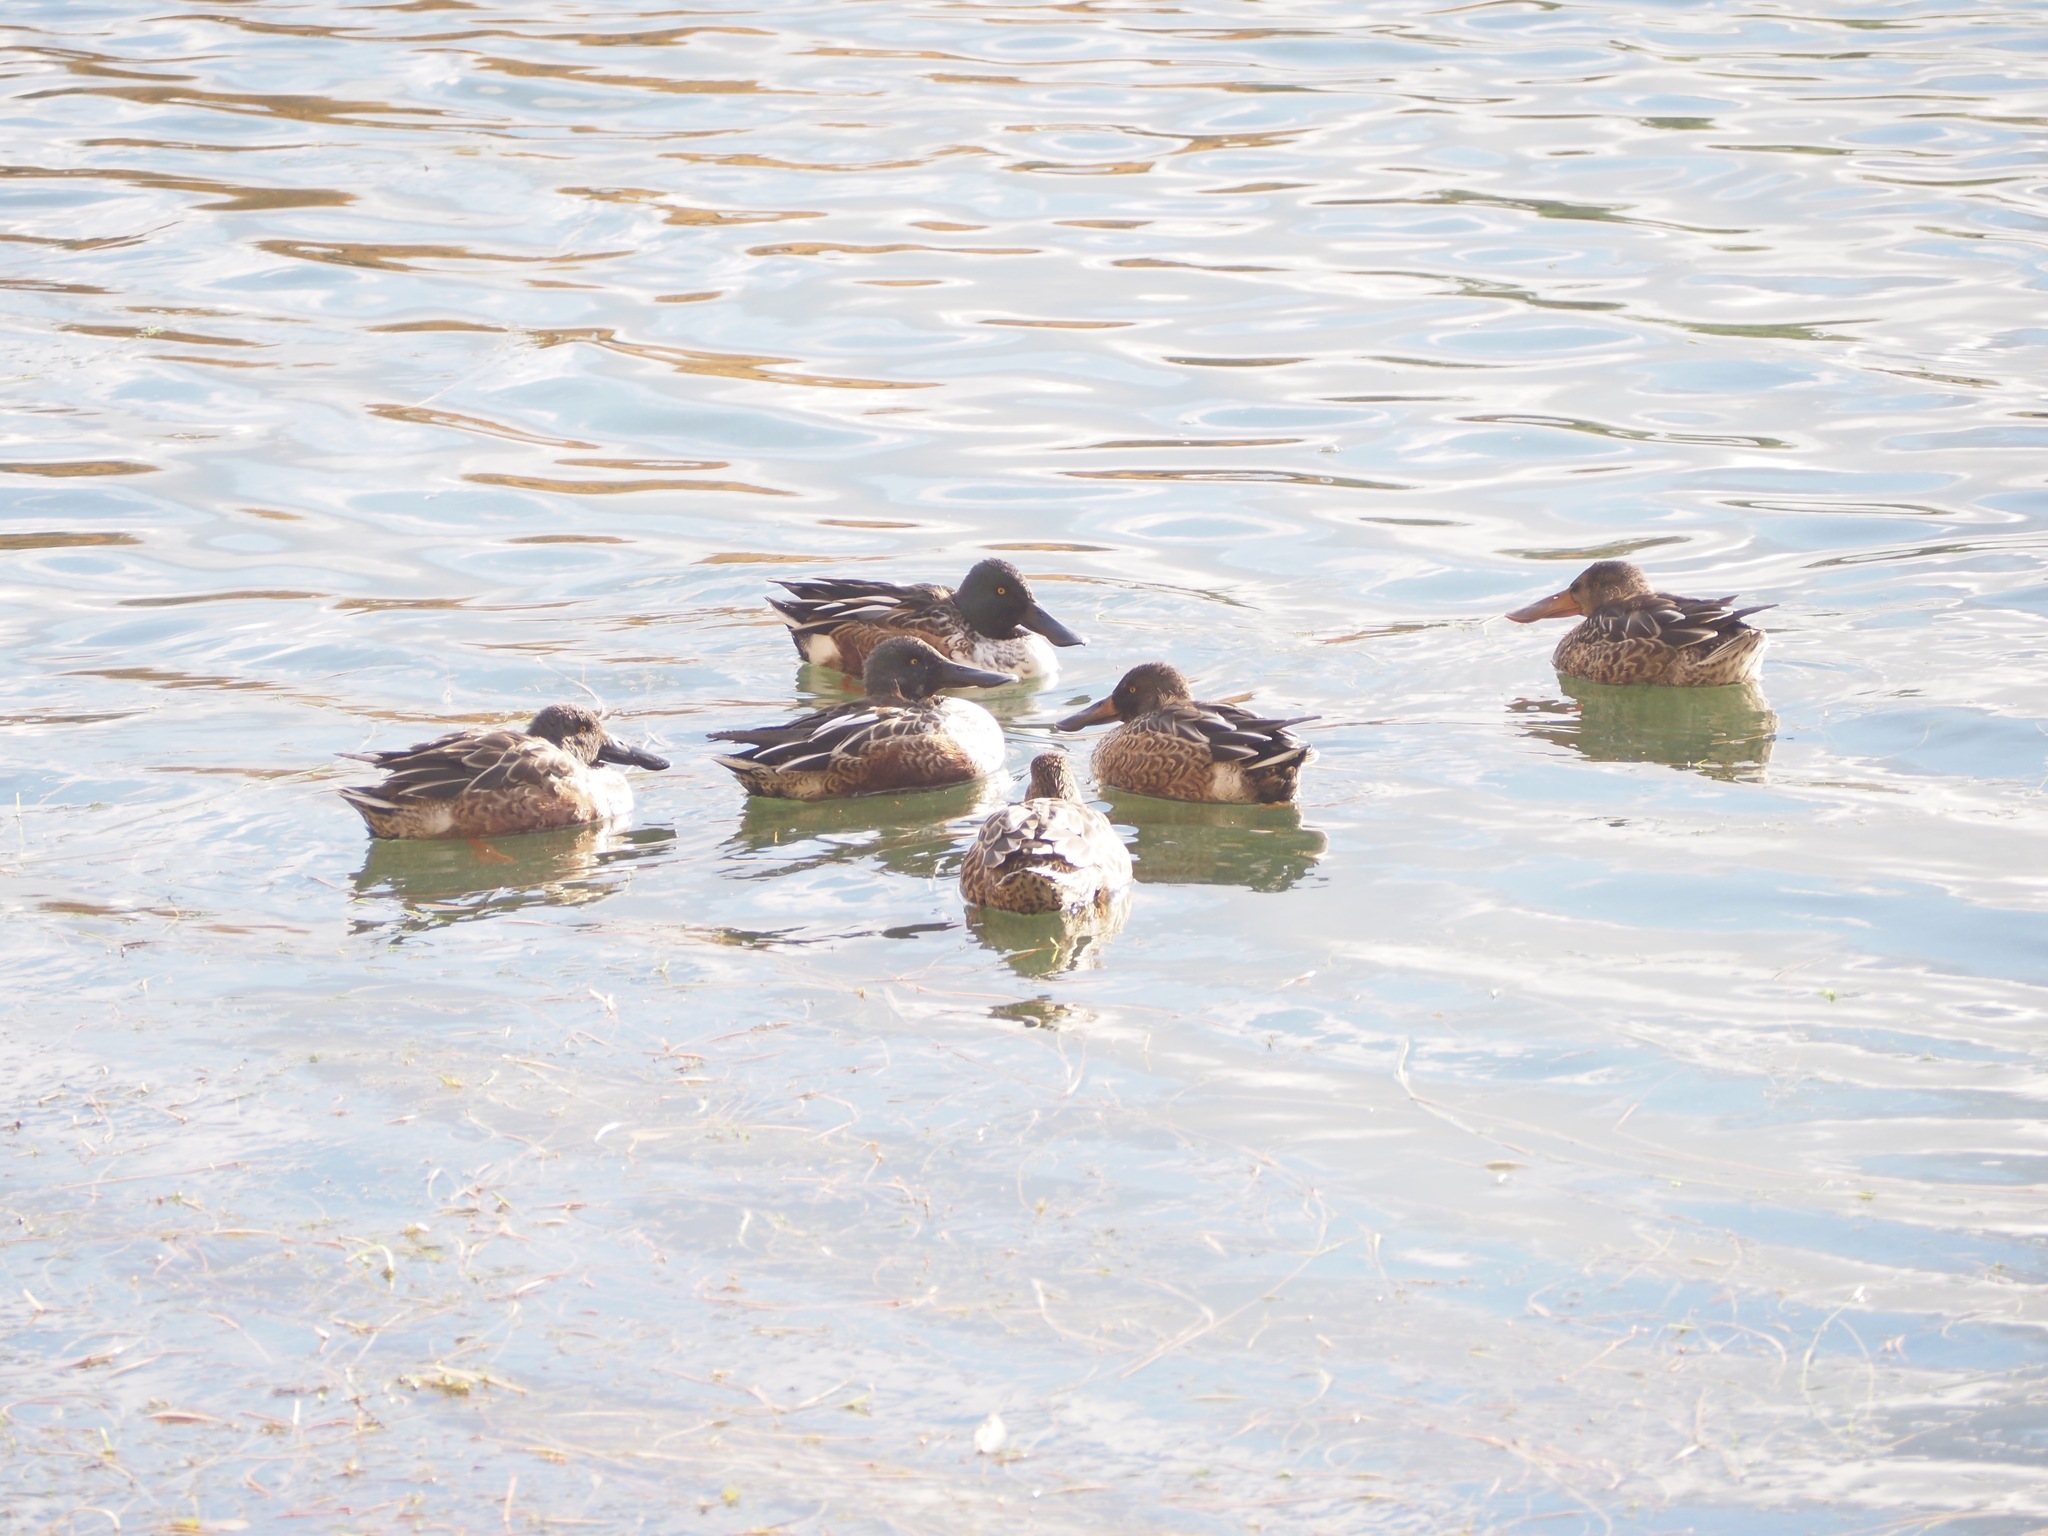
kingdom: Animalia
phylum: Chordata
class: Aves
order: Anseriformes
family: Anatidae
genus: Spatula
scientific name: Spatula clypeata
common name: Northern shoveler
